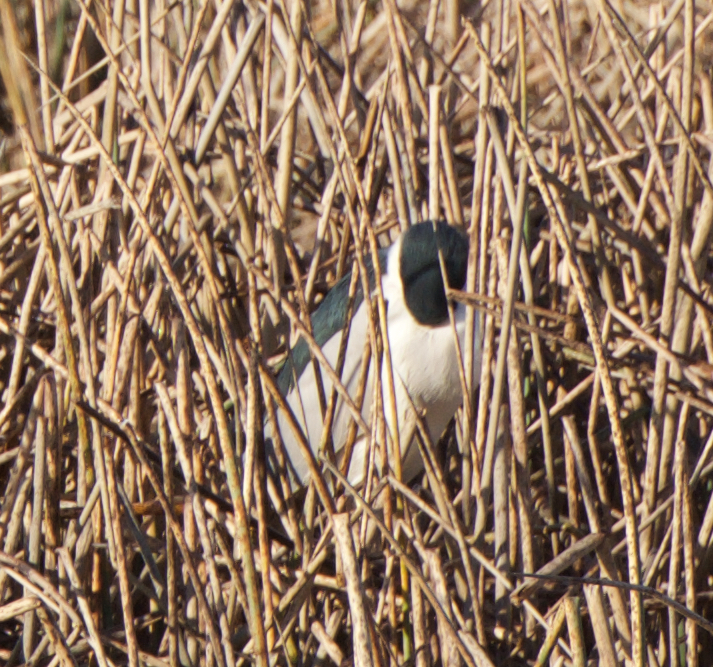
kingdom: Animalia
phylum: Chordata
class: Aves
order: Pelecaniformes
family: Ardeidae
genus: Nycticorax
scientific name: Nycticorax nycticorax
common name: Black-crowned night heron
